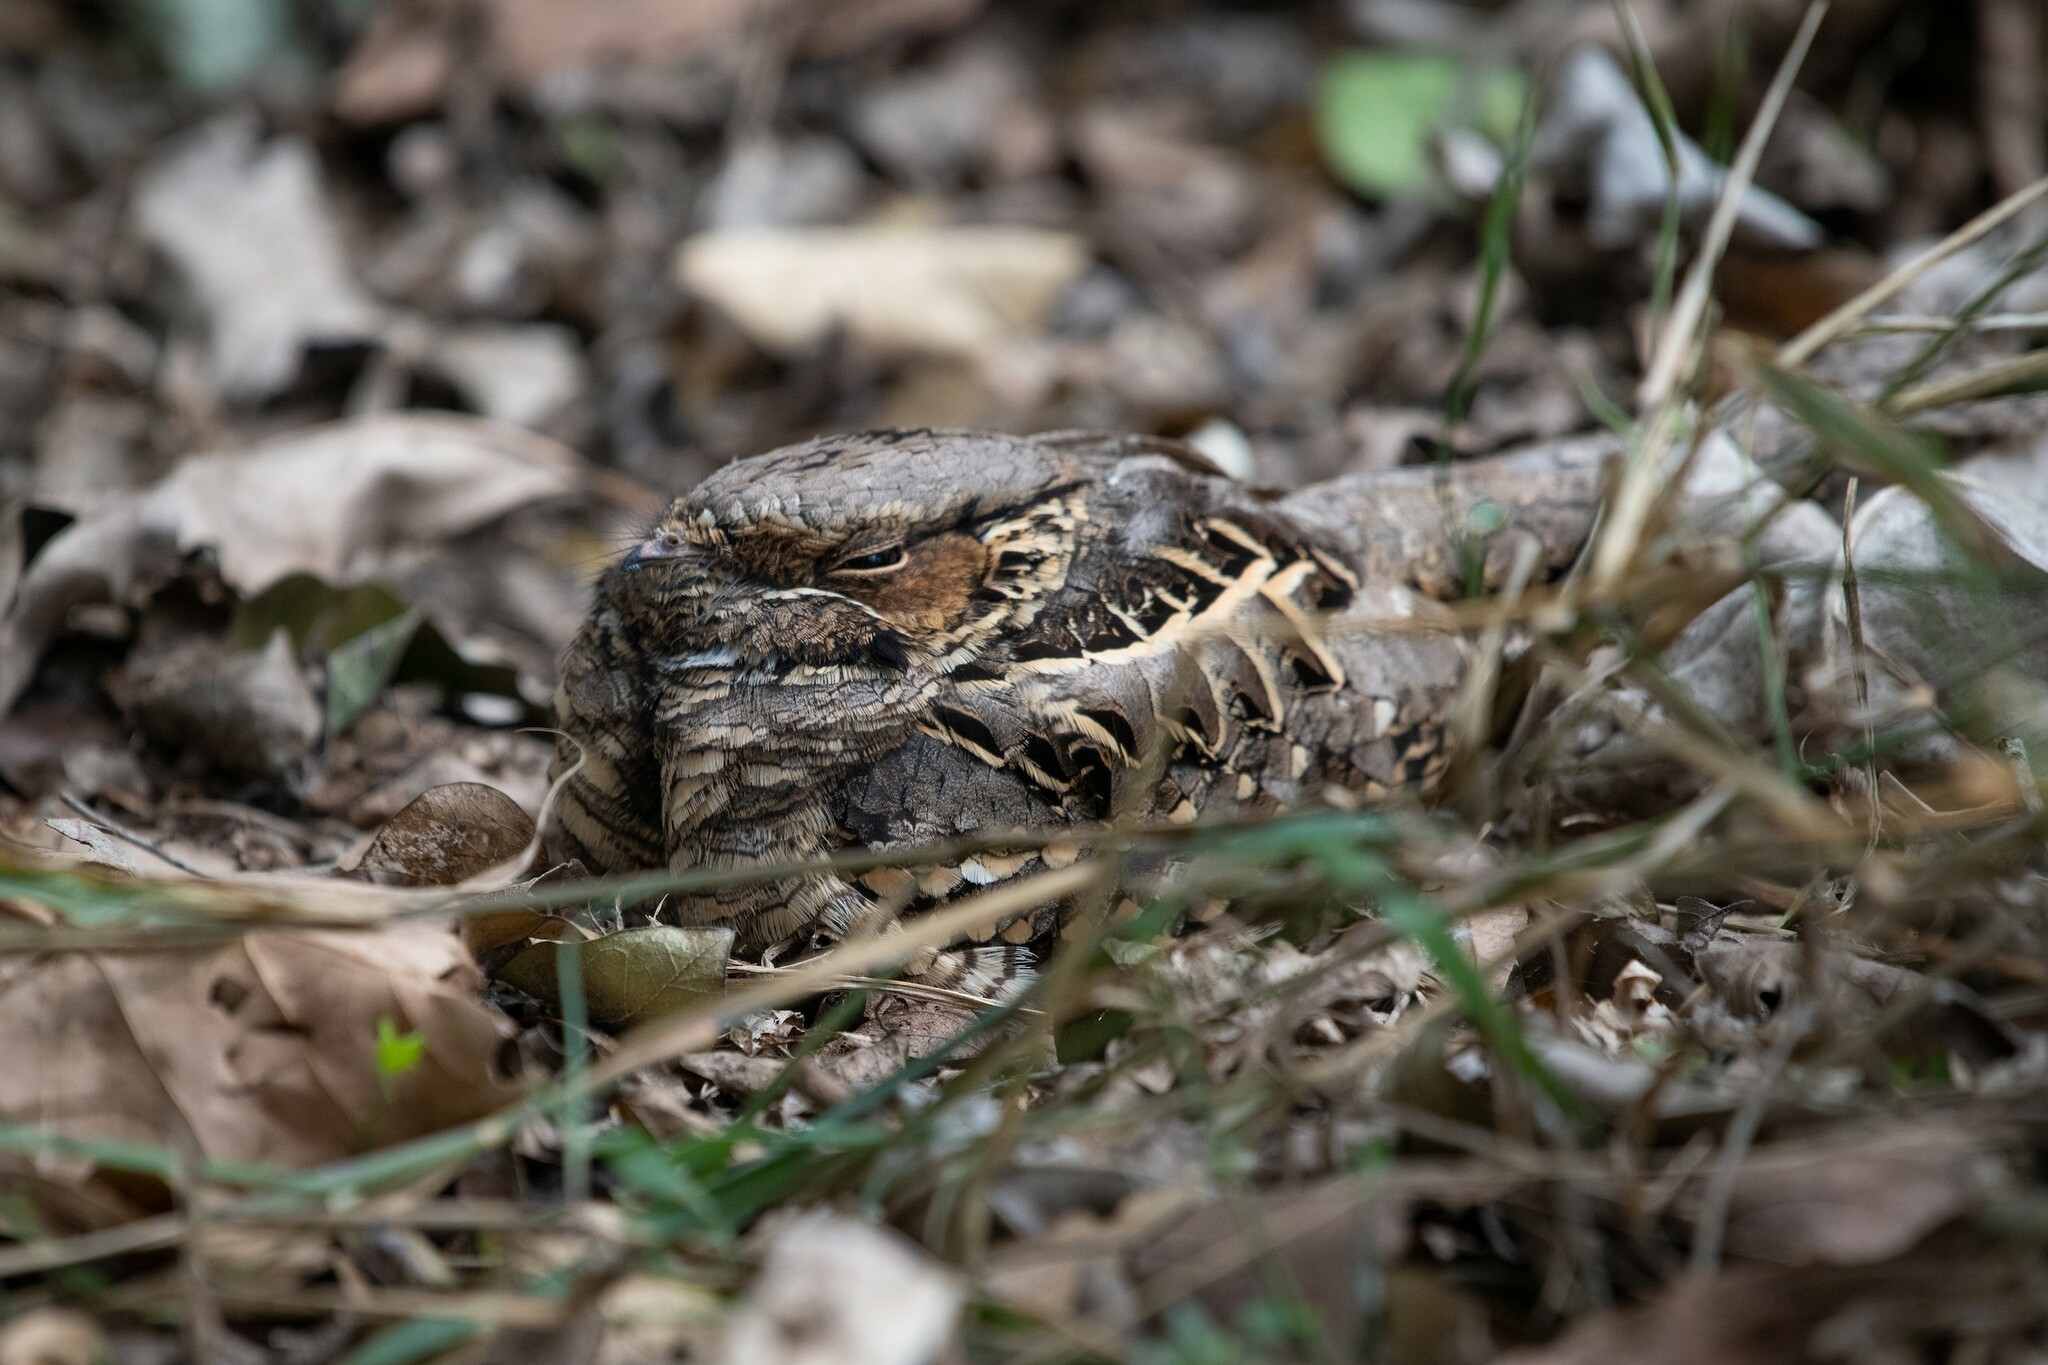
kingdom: Animalia
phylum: Chordata
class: Aves
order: Caprimulgiformes
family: Caprimulgidae
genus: Nyctidromus
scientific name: Nyctidromus albicollis
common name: Pauraque
